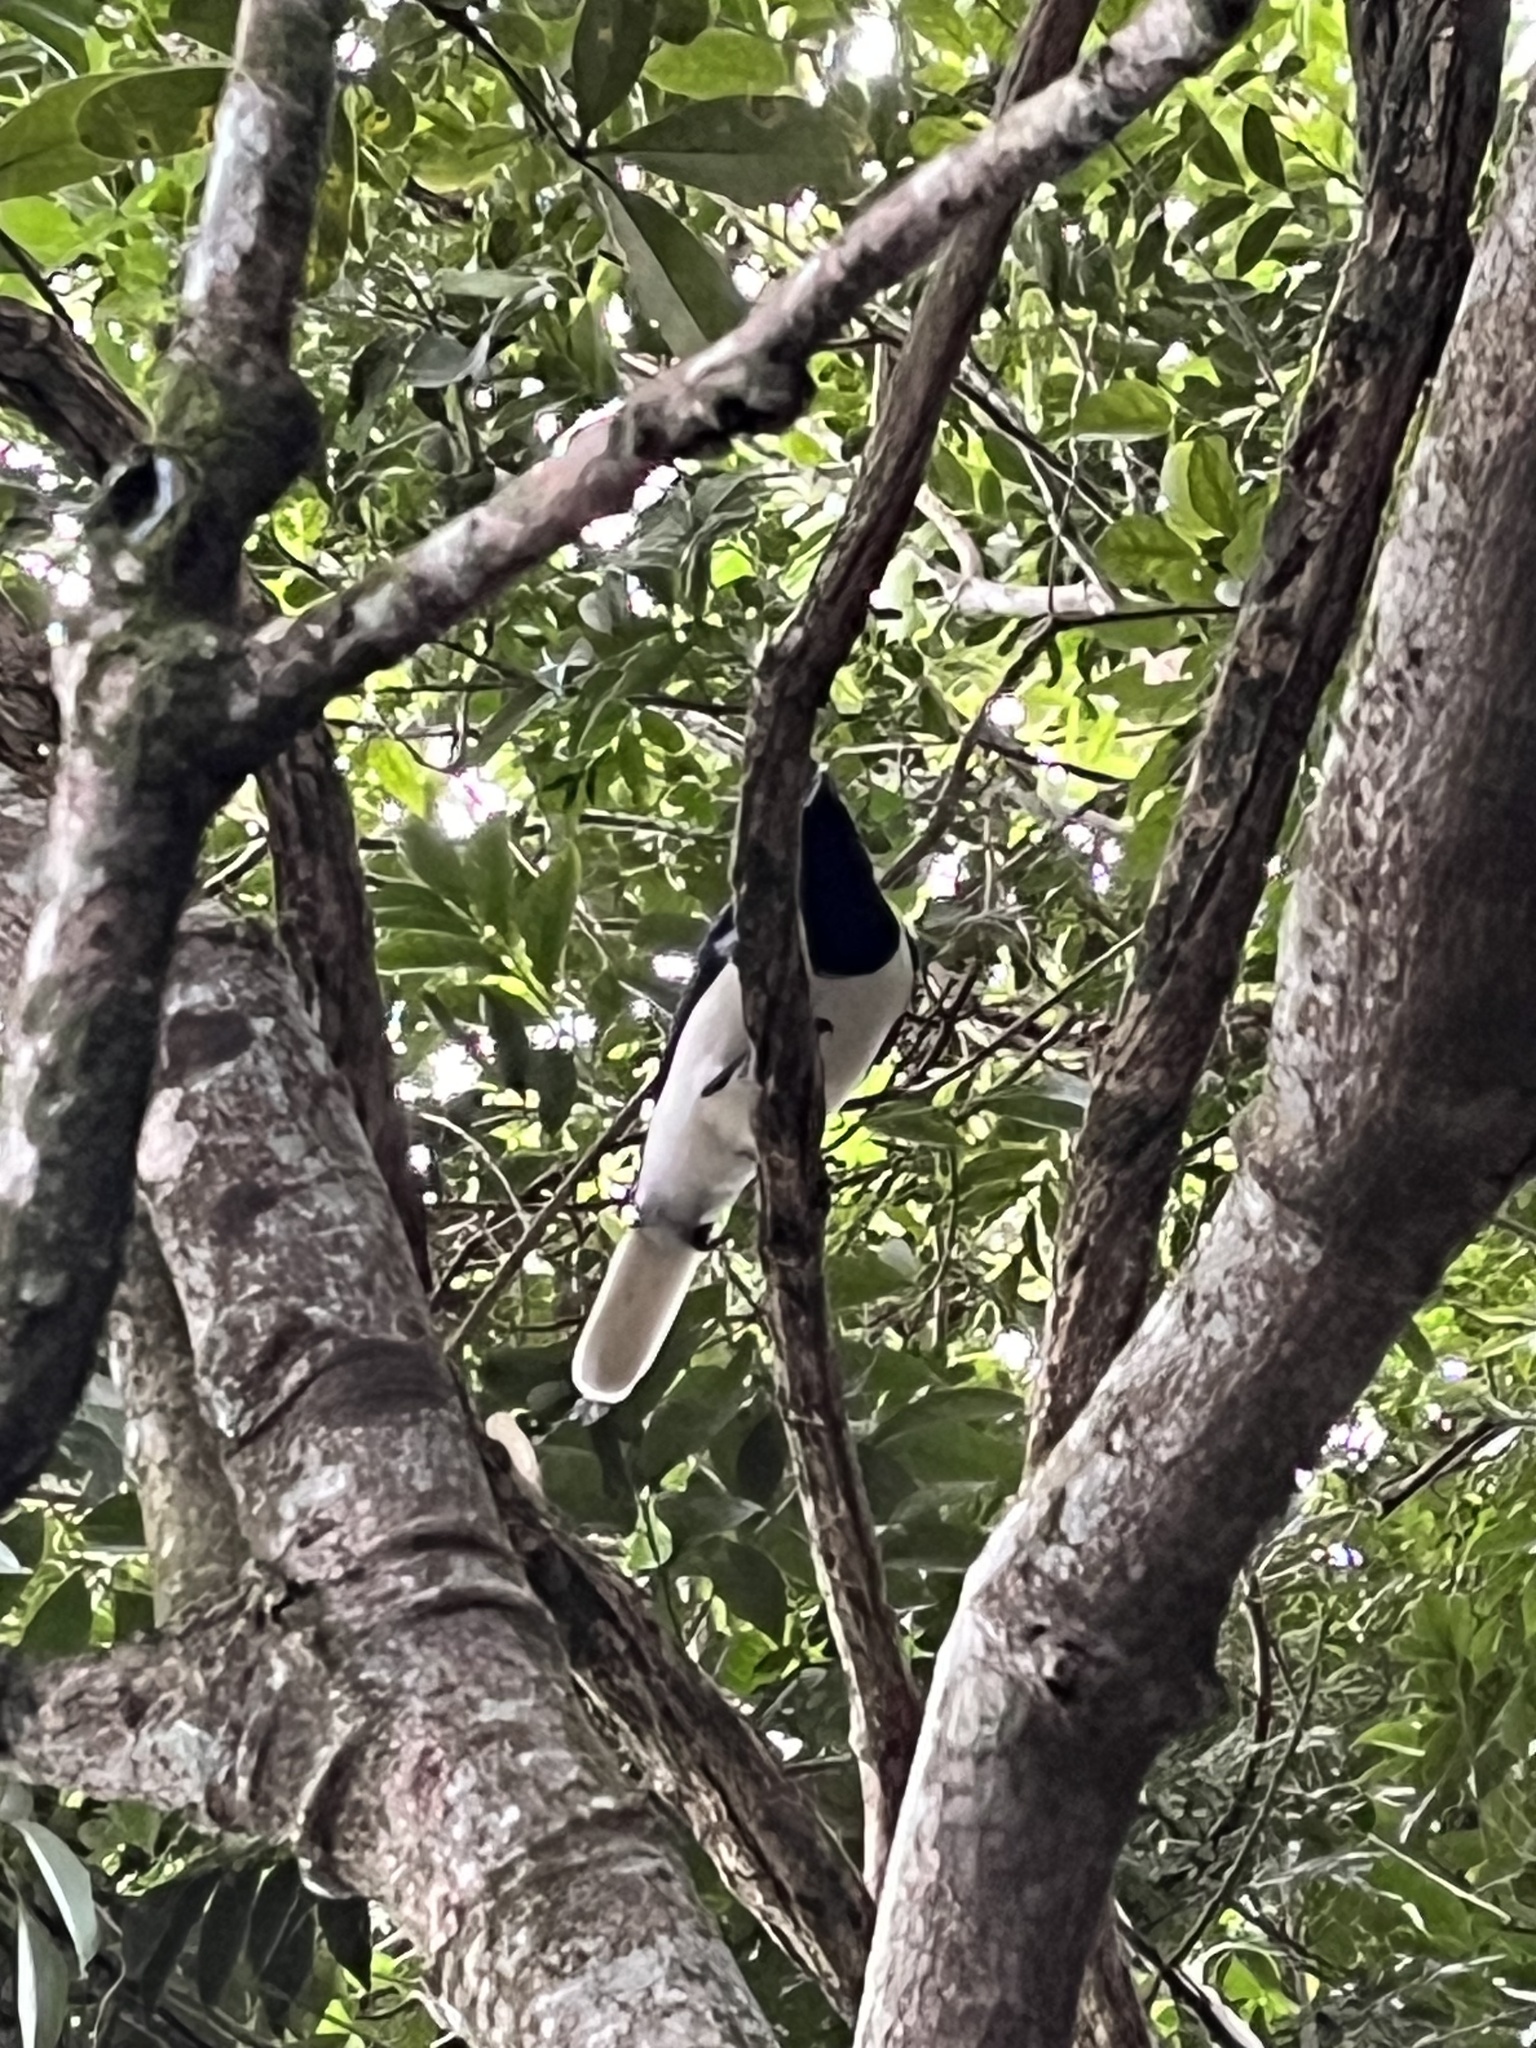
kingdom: Animalia
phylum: Chordata
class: Aves
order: Passeriformes
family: Corvidae
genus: Cyanocorax
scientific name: Cyanocorax cristatellus
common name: Curl-crested jay
